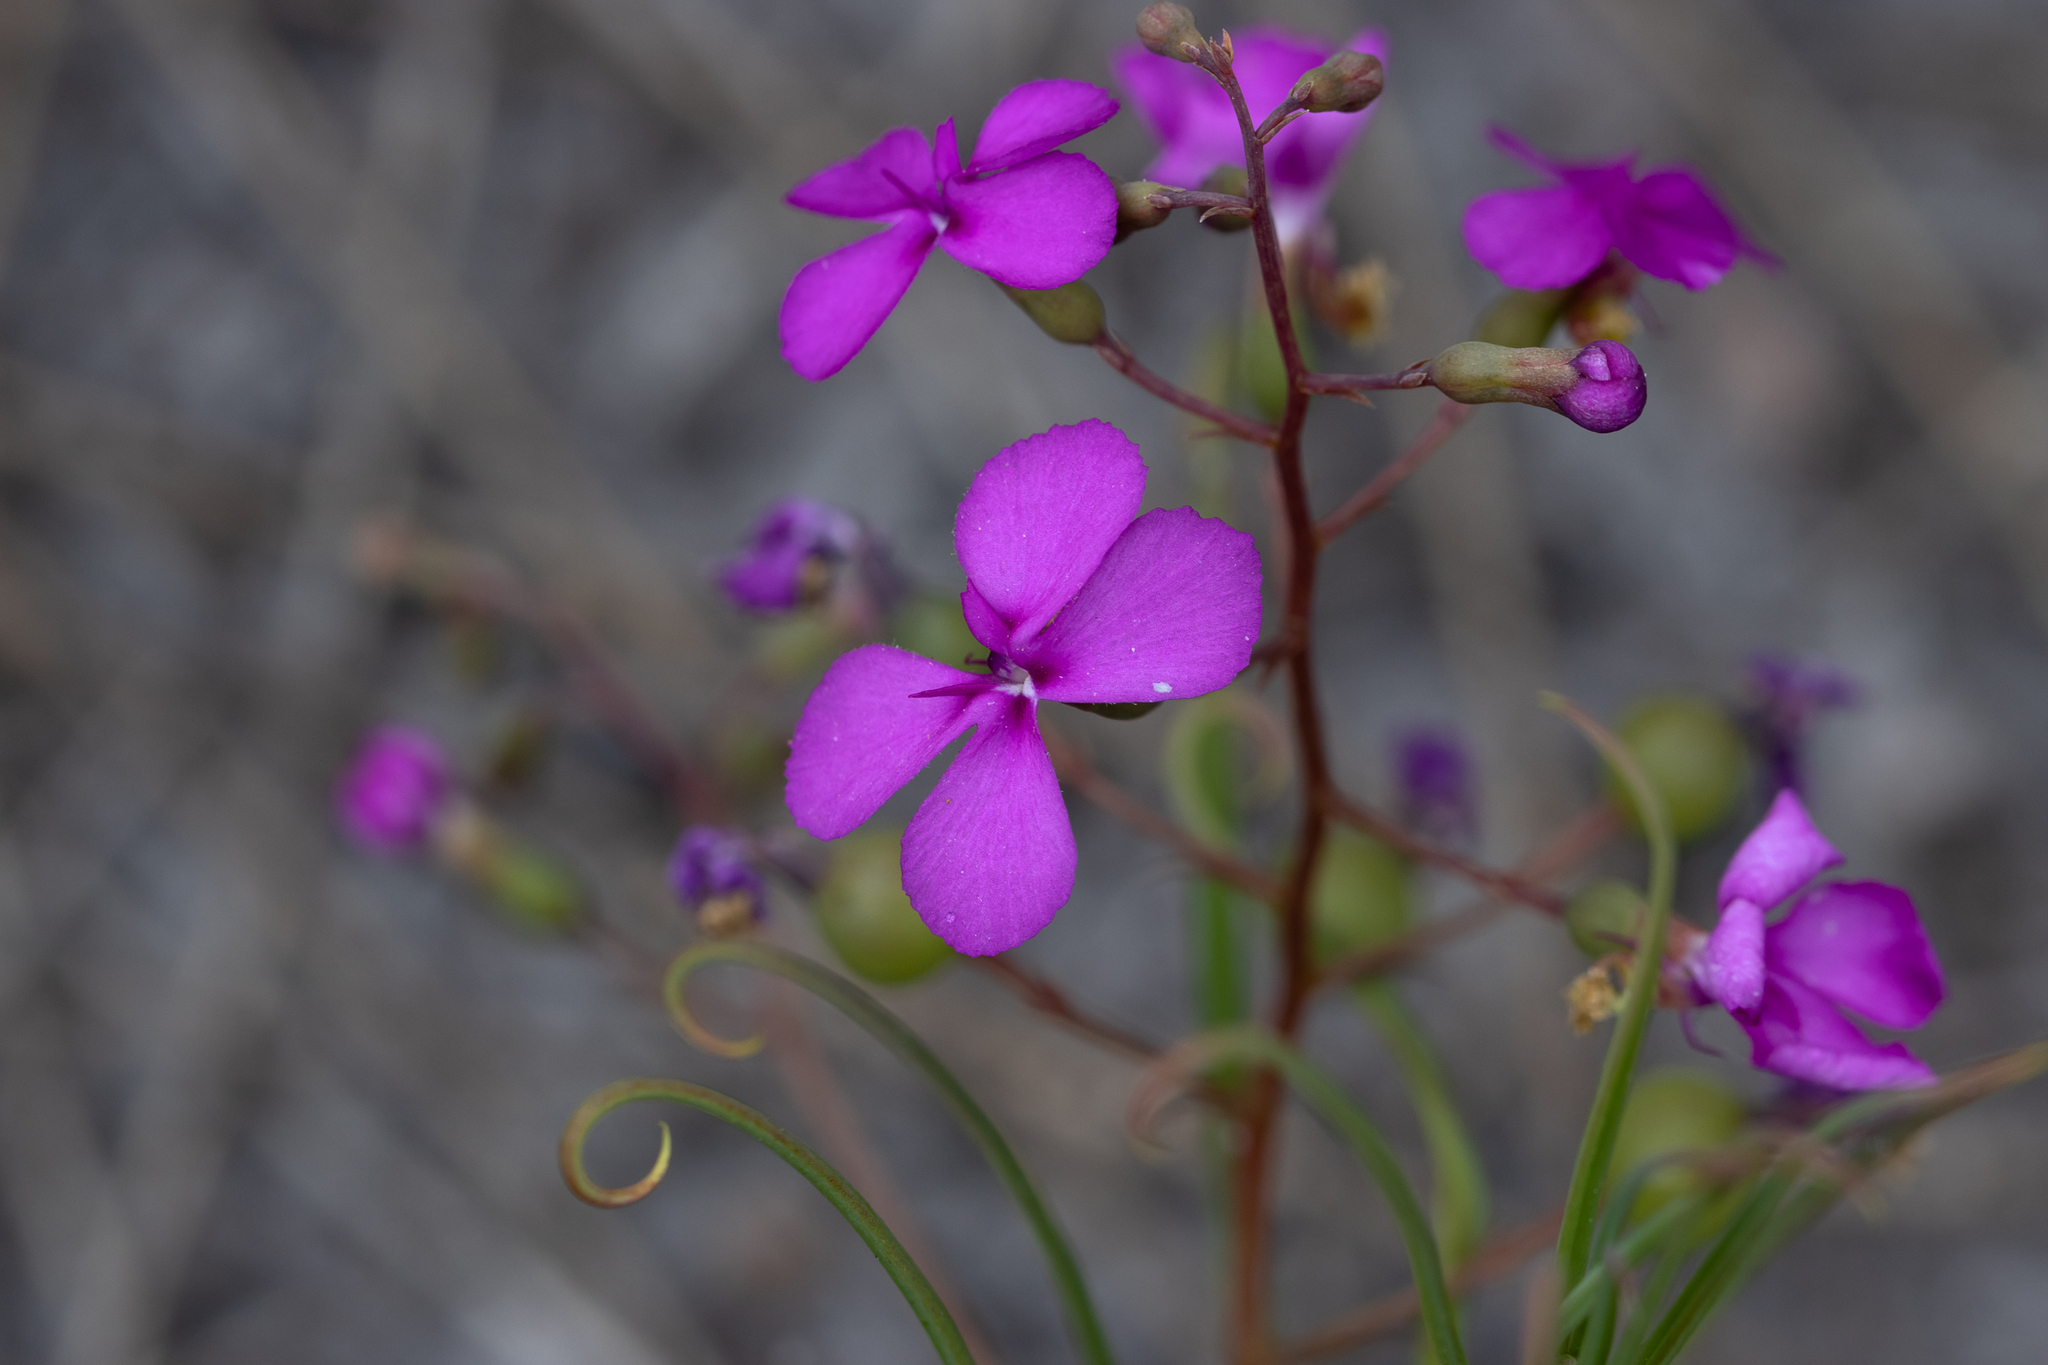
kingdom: Plantae
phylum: Tracheophyta
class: Magnoliopsida
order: Asterales
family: Stylidiaceae
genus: Stylidium
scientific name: Stylidium scandens
